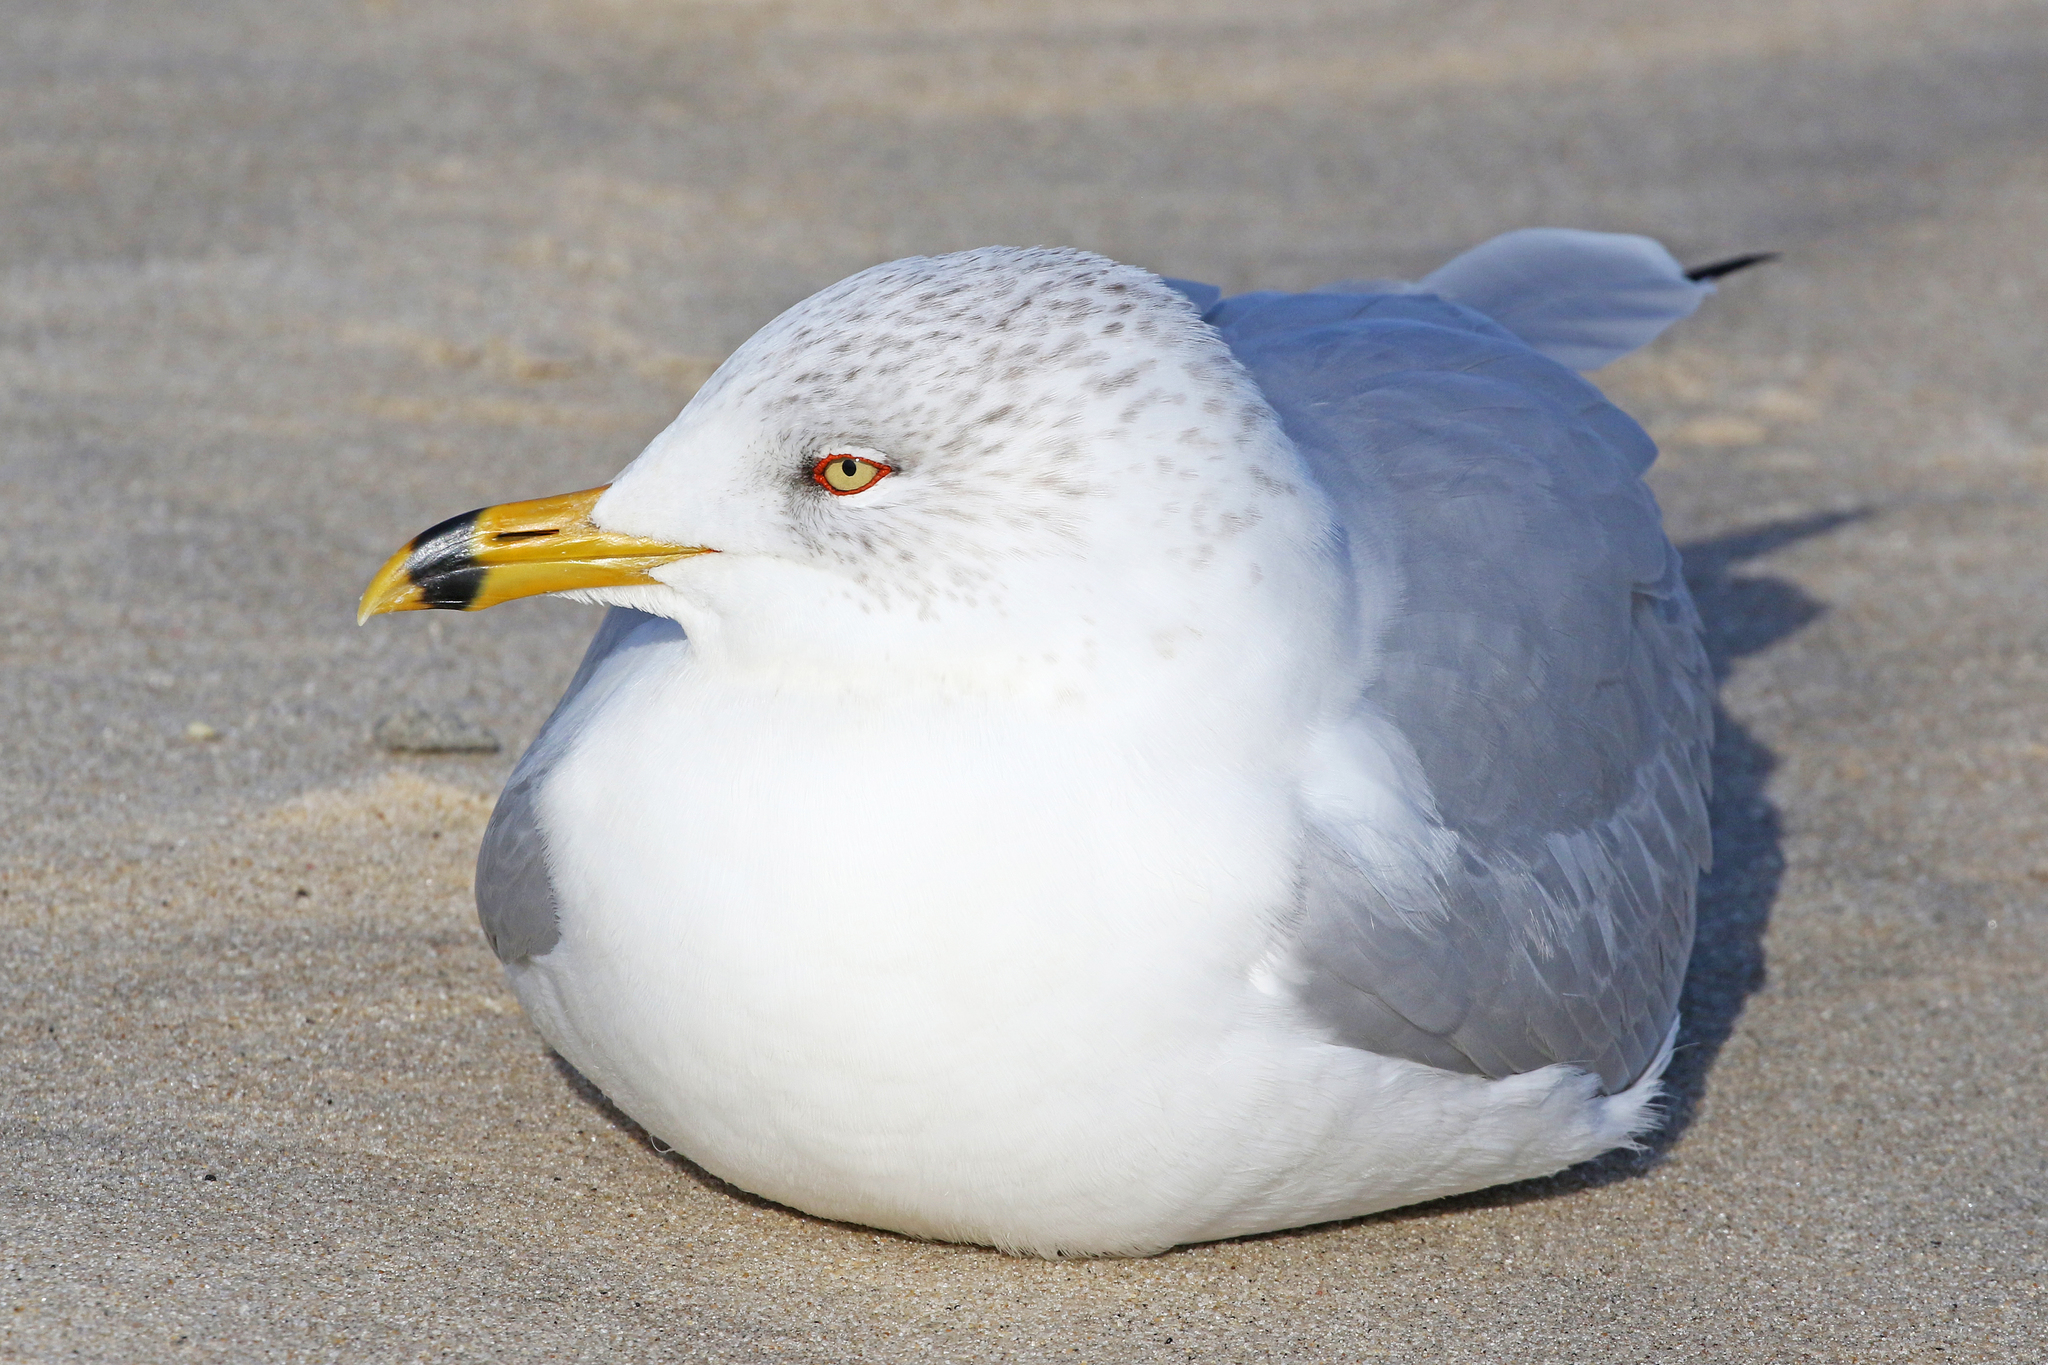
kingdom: Animalia
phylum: Chordata
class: Aves
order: Charadriiformes
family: Laridae
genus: Larus
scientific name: Larus delawarensis
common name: Ring-billed gull
